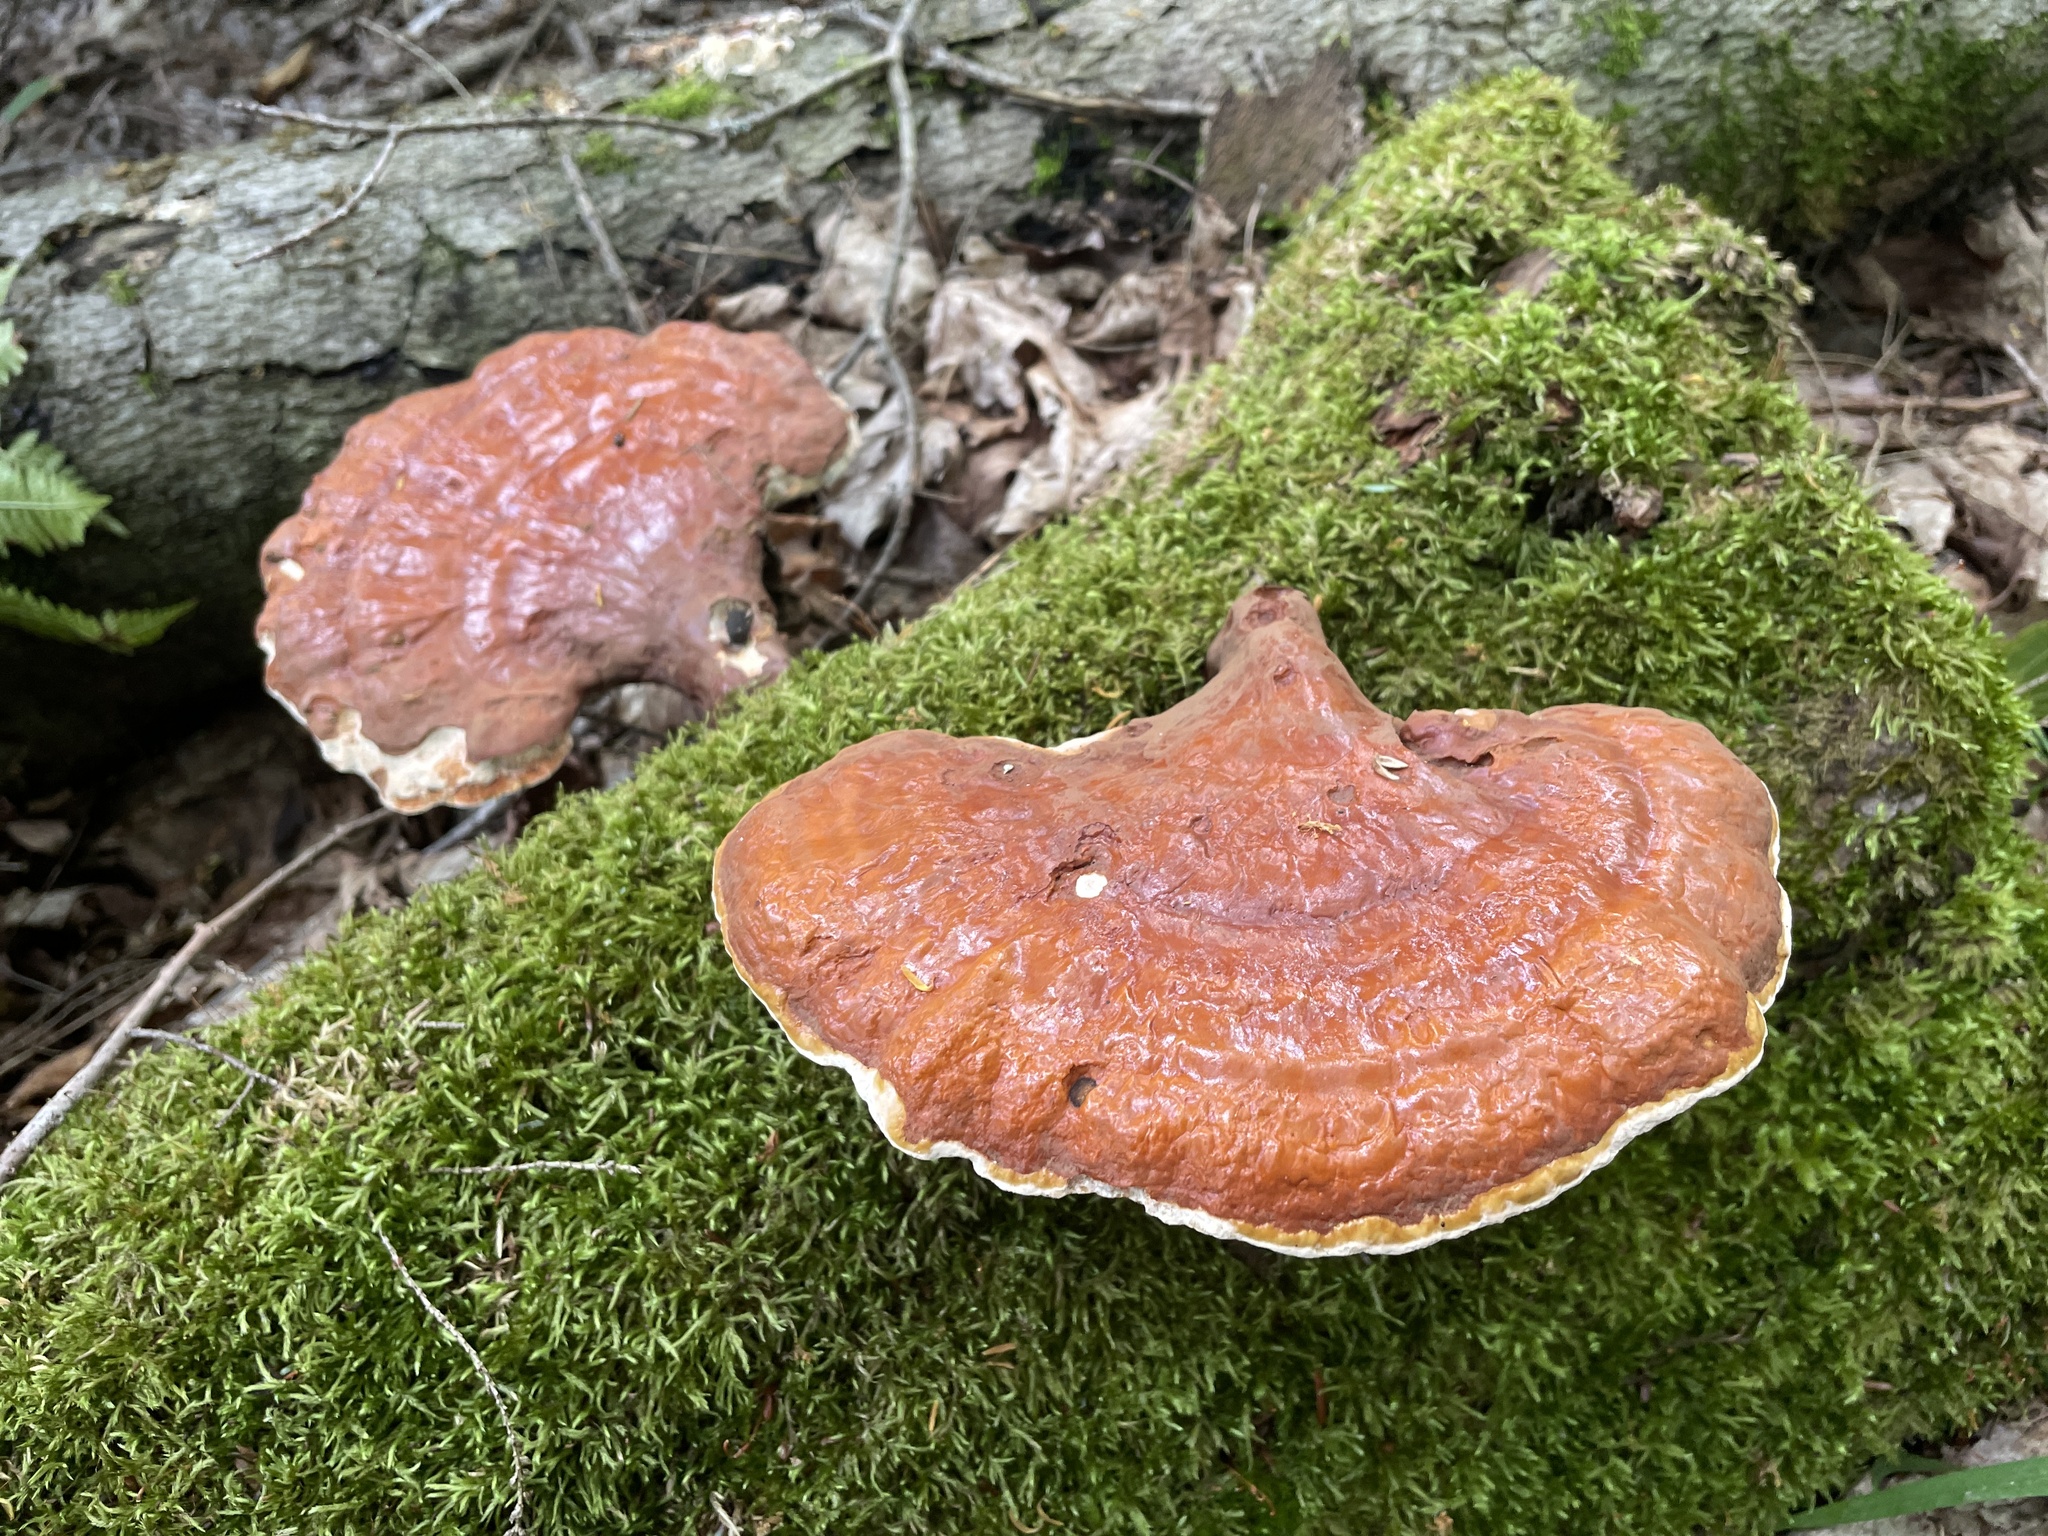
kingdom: Fungi
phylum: Basidiomycota
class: Agaricomycetes
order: Polyporales
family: Polyporaceae
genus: Ganoderma
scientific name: Ganoderma tsugae
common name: Hemlock varnish shelf
